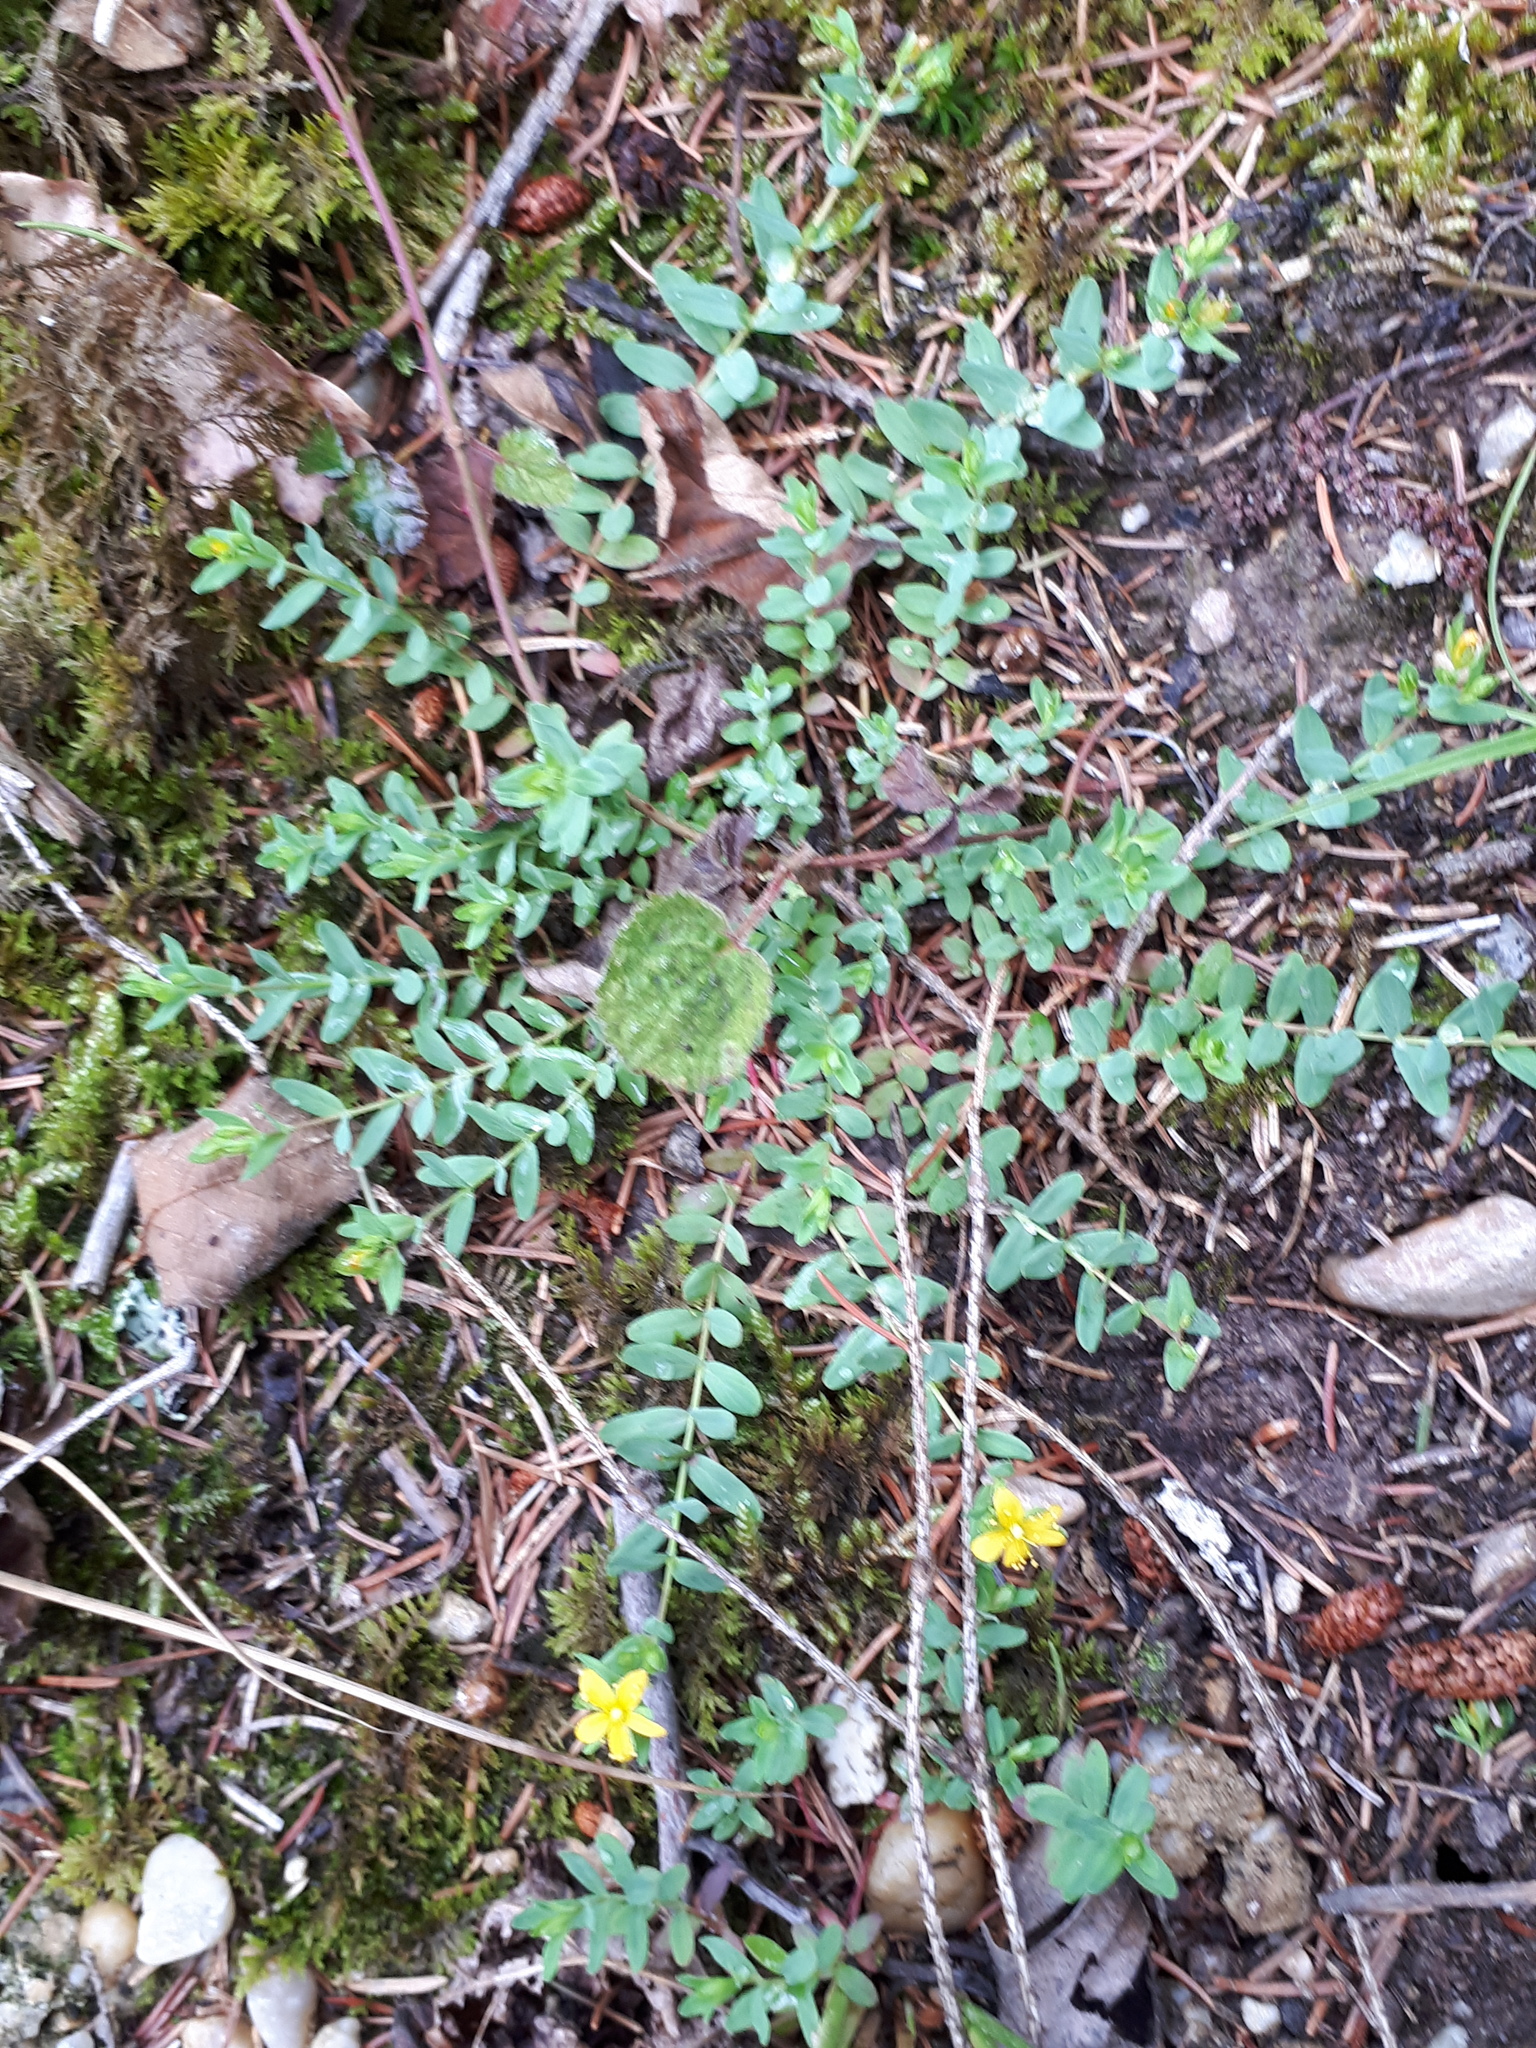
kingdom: Plantae
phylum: Tracheophyta
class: Magnoliopsida
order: Malpighiales
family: Hypericaceae
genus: Hypericum
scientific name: Hypericum humifusum
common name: Trailing st. john's-wort
